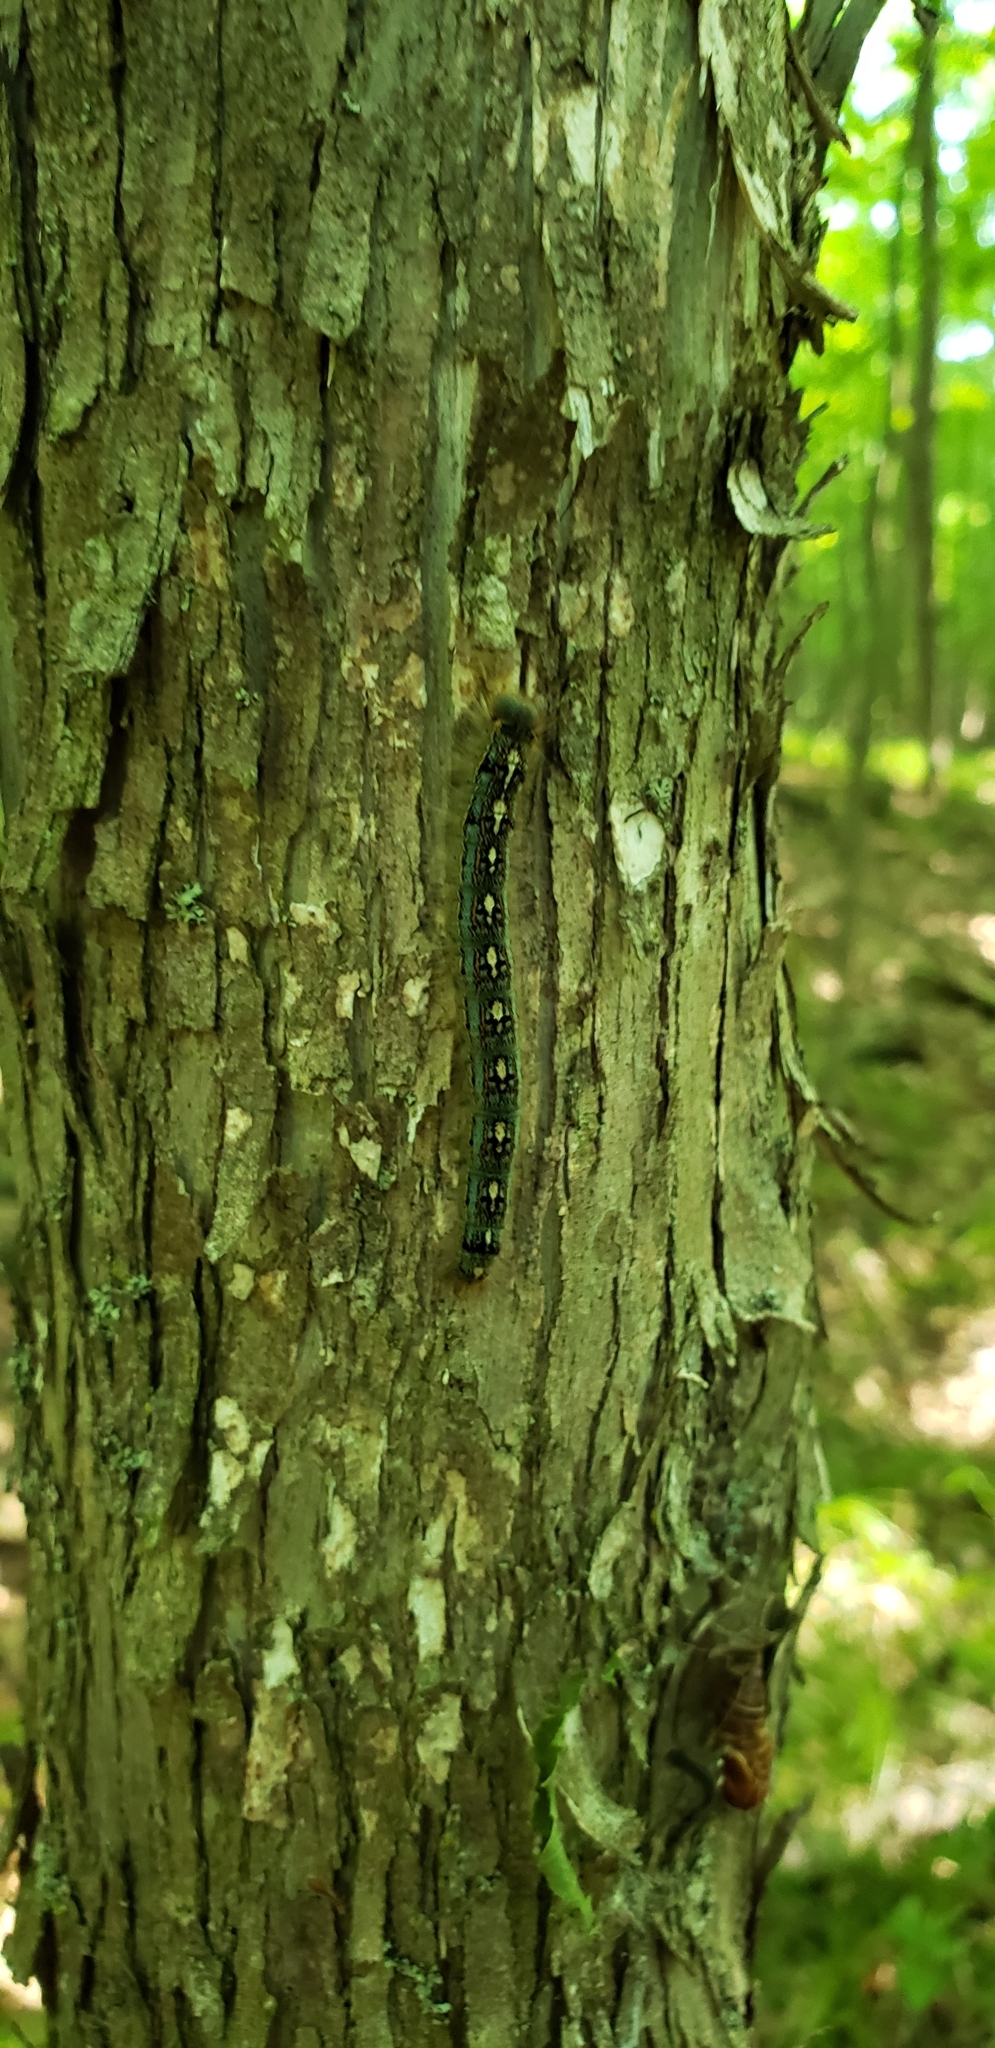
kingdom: Animalia
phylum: Arthropoda
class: Insecta
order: Lepidoptera
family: Lasiocampidae
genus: Malacosoma
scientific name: Malacosoma disstria
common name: Forest tent caterpillar
